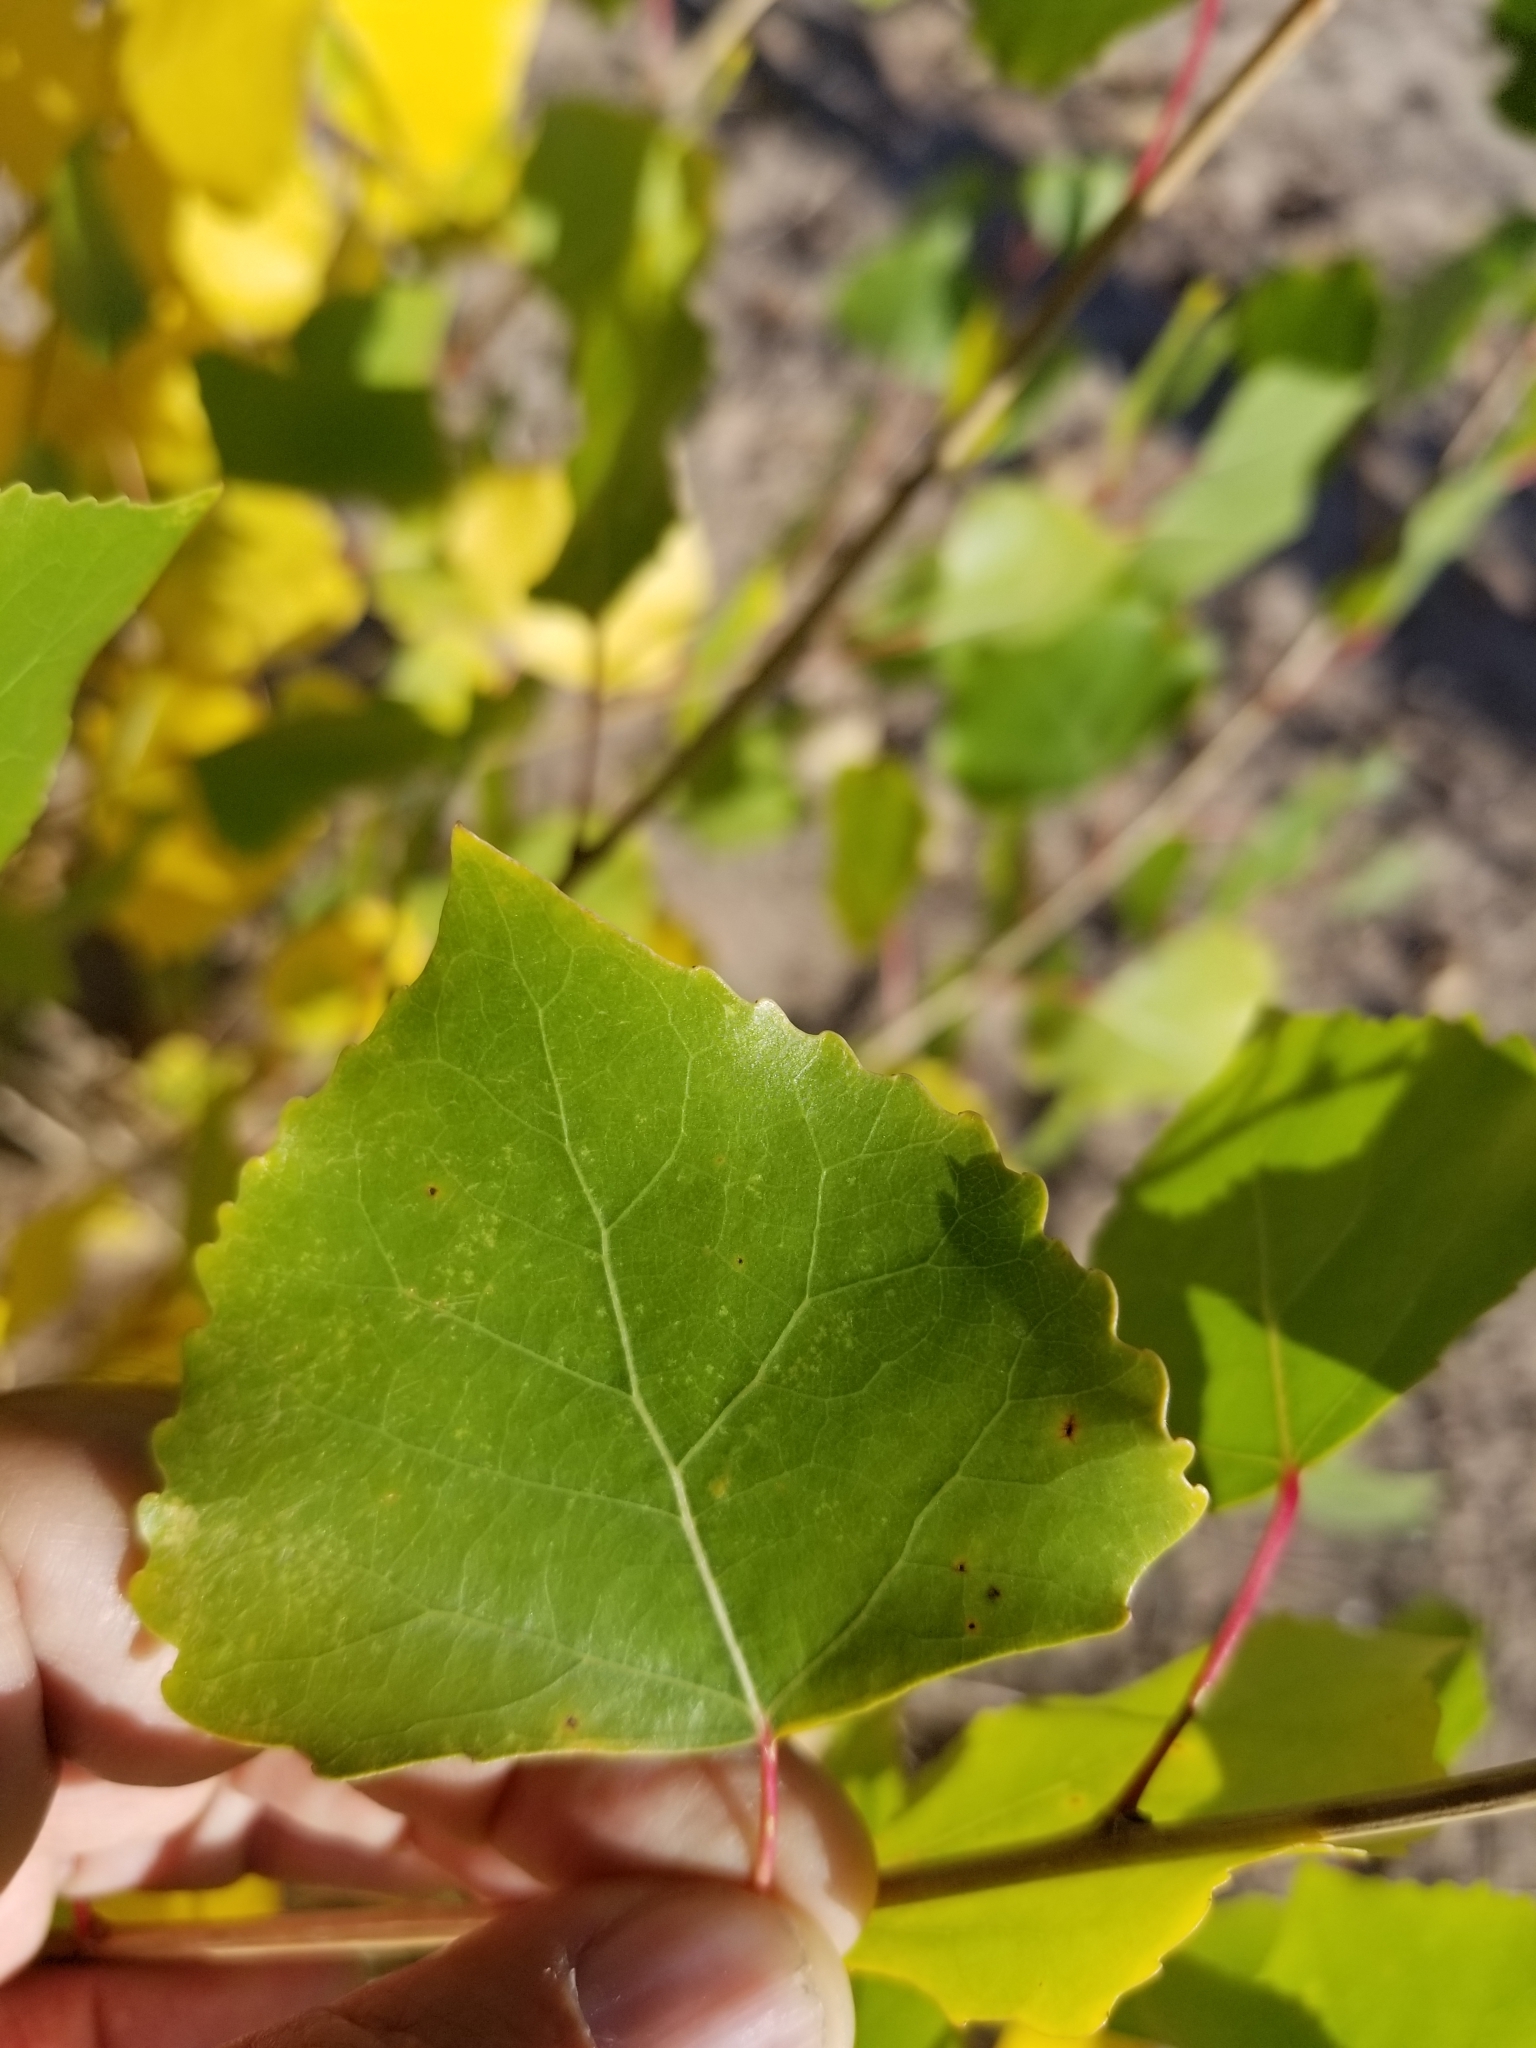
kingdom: Plantae
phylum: Tracheophyta
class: Magnoliopsida
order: Malpighiales
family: Salicaceae
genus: Populus
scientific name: Populus deltoides
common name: Eastern cottonwood
